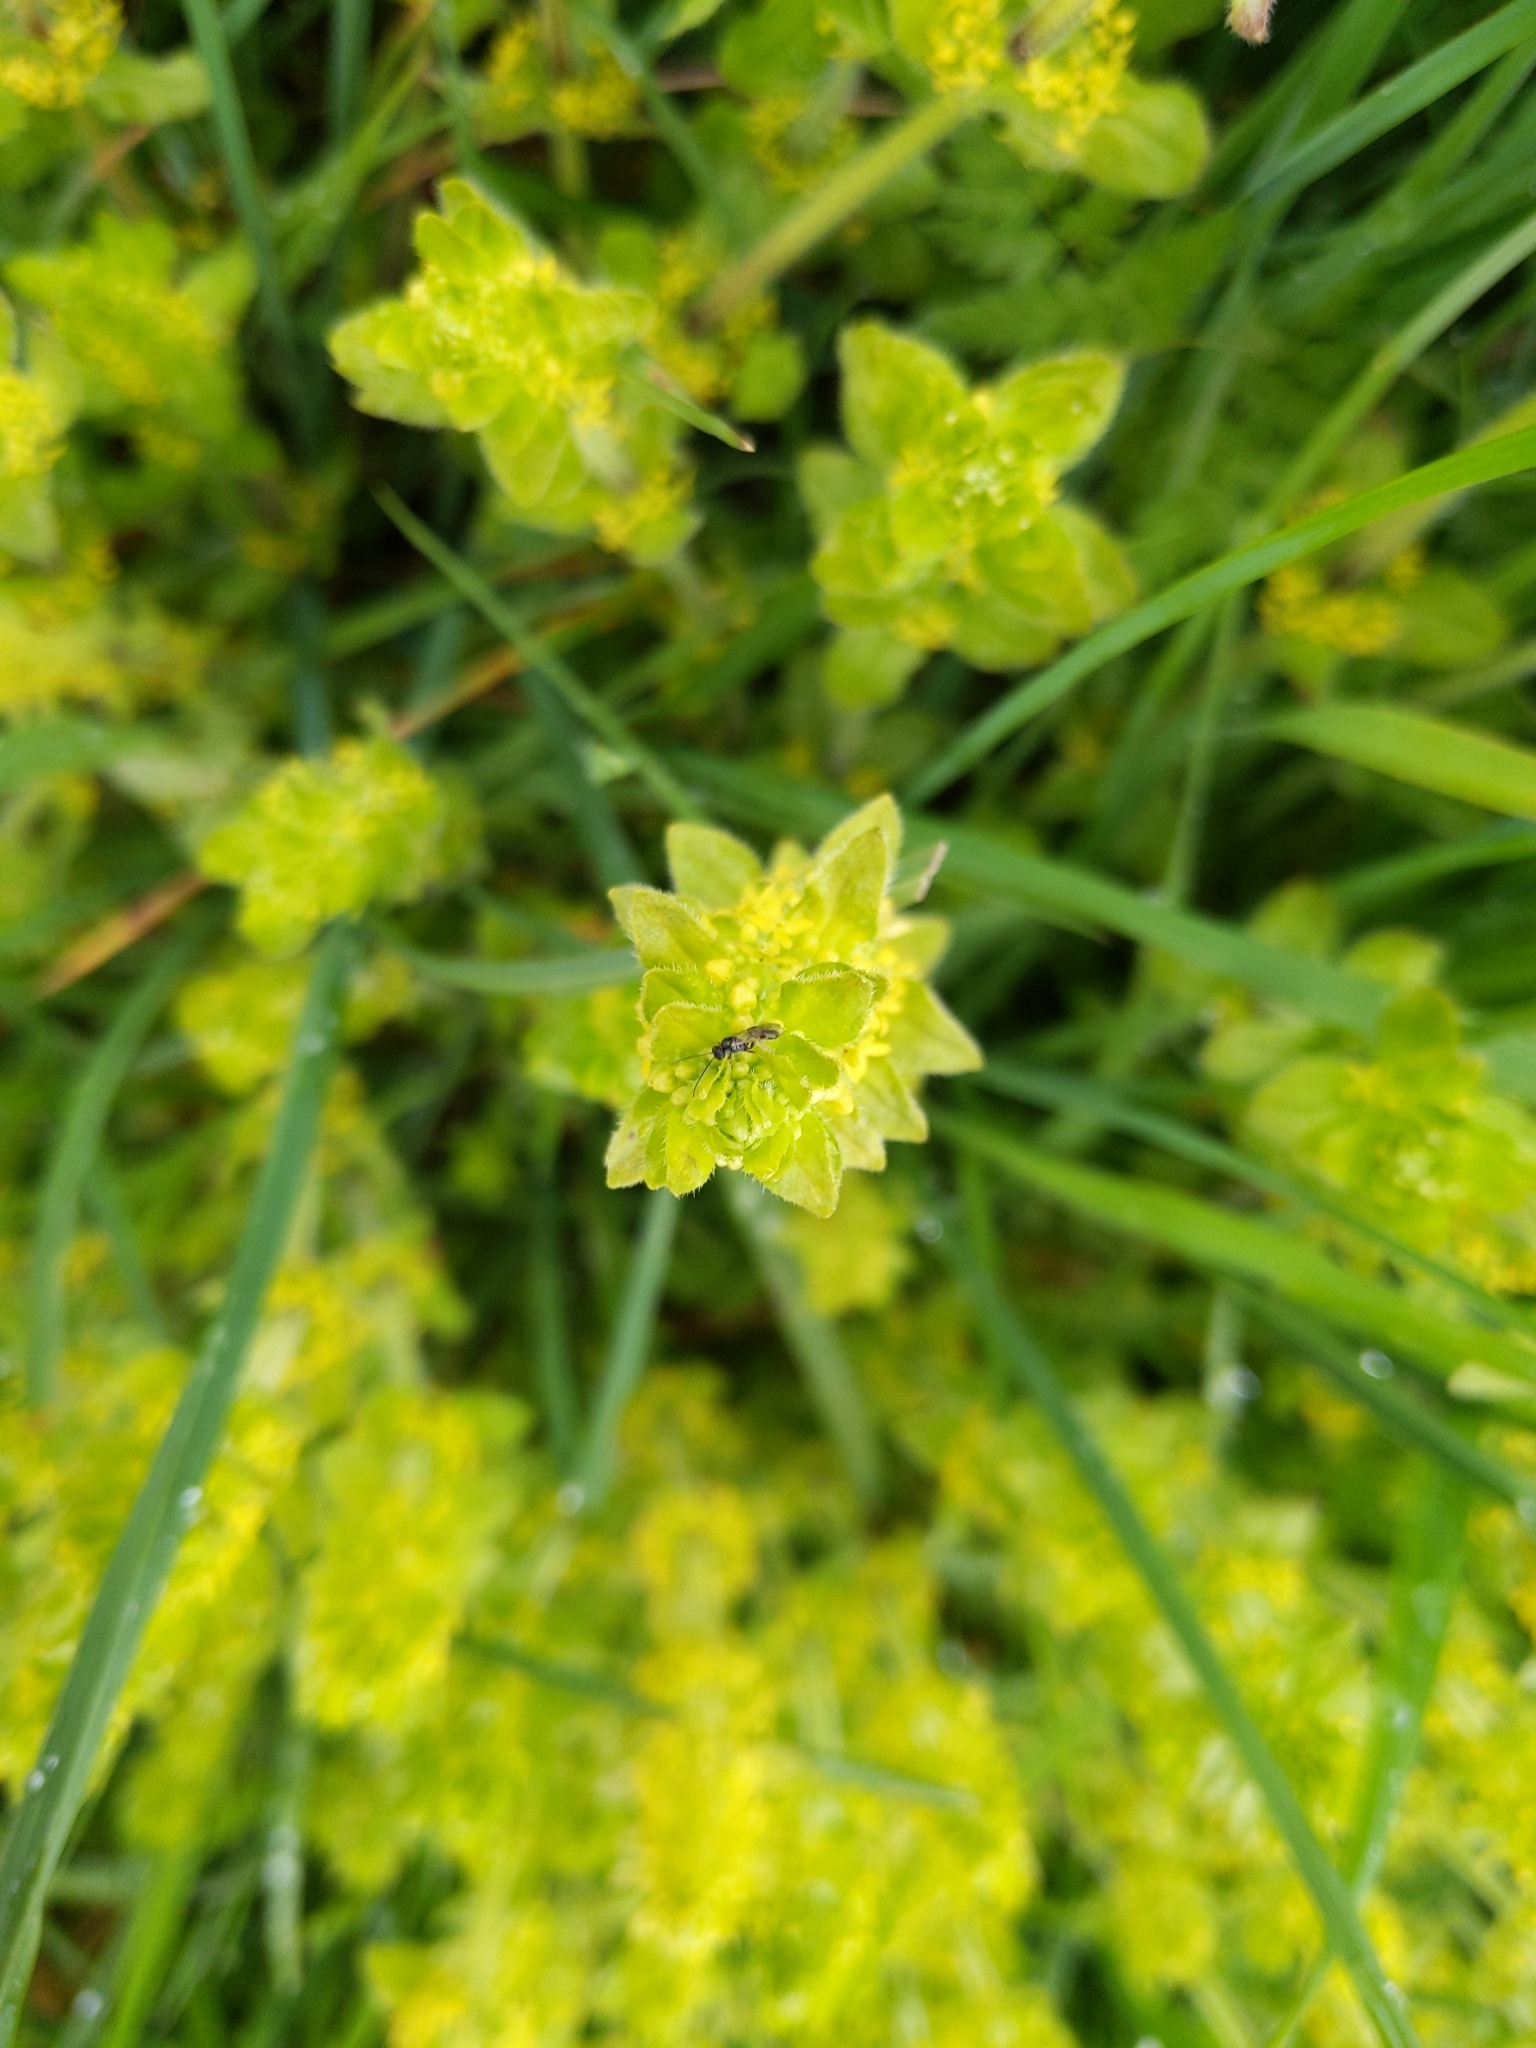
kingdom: Plantae
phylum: Tracheophyta
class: Magnoliopsida
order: Gentianales
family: Rubiaceae
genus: Cruciata
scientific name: Cruciata laevipes
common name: Crosswort
